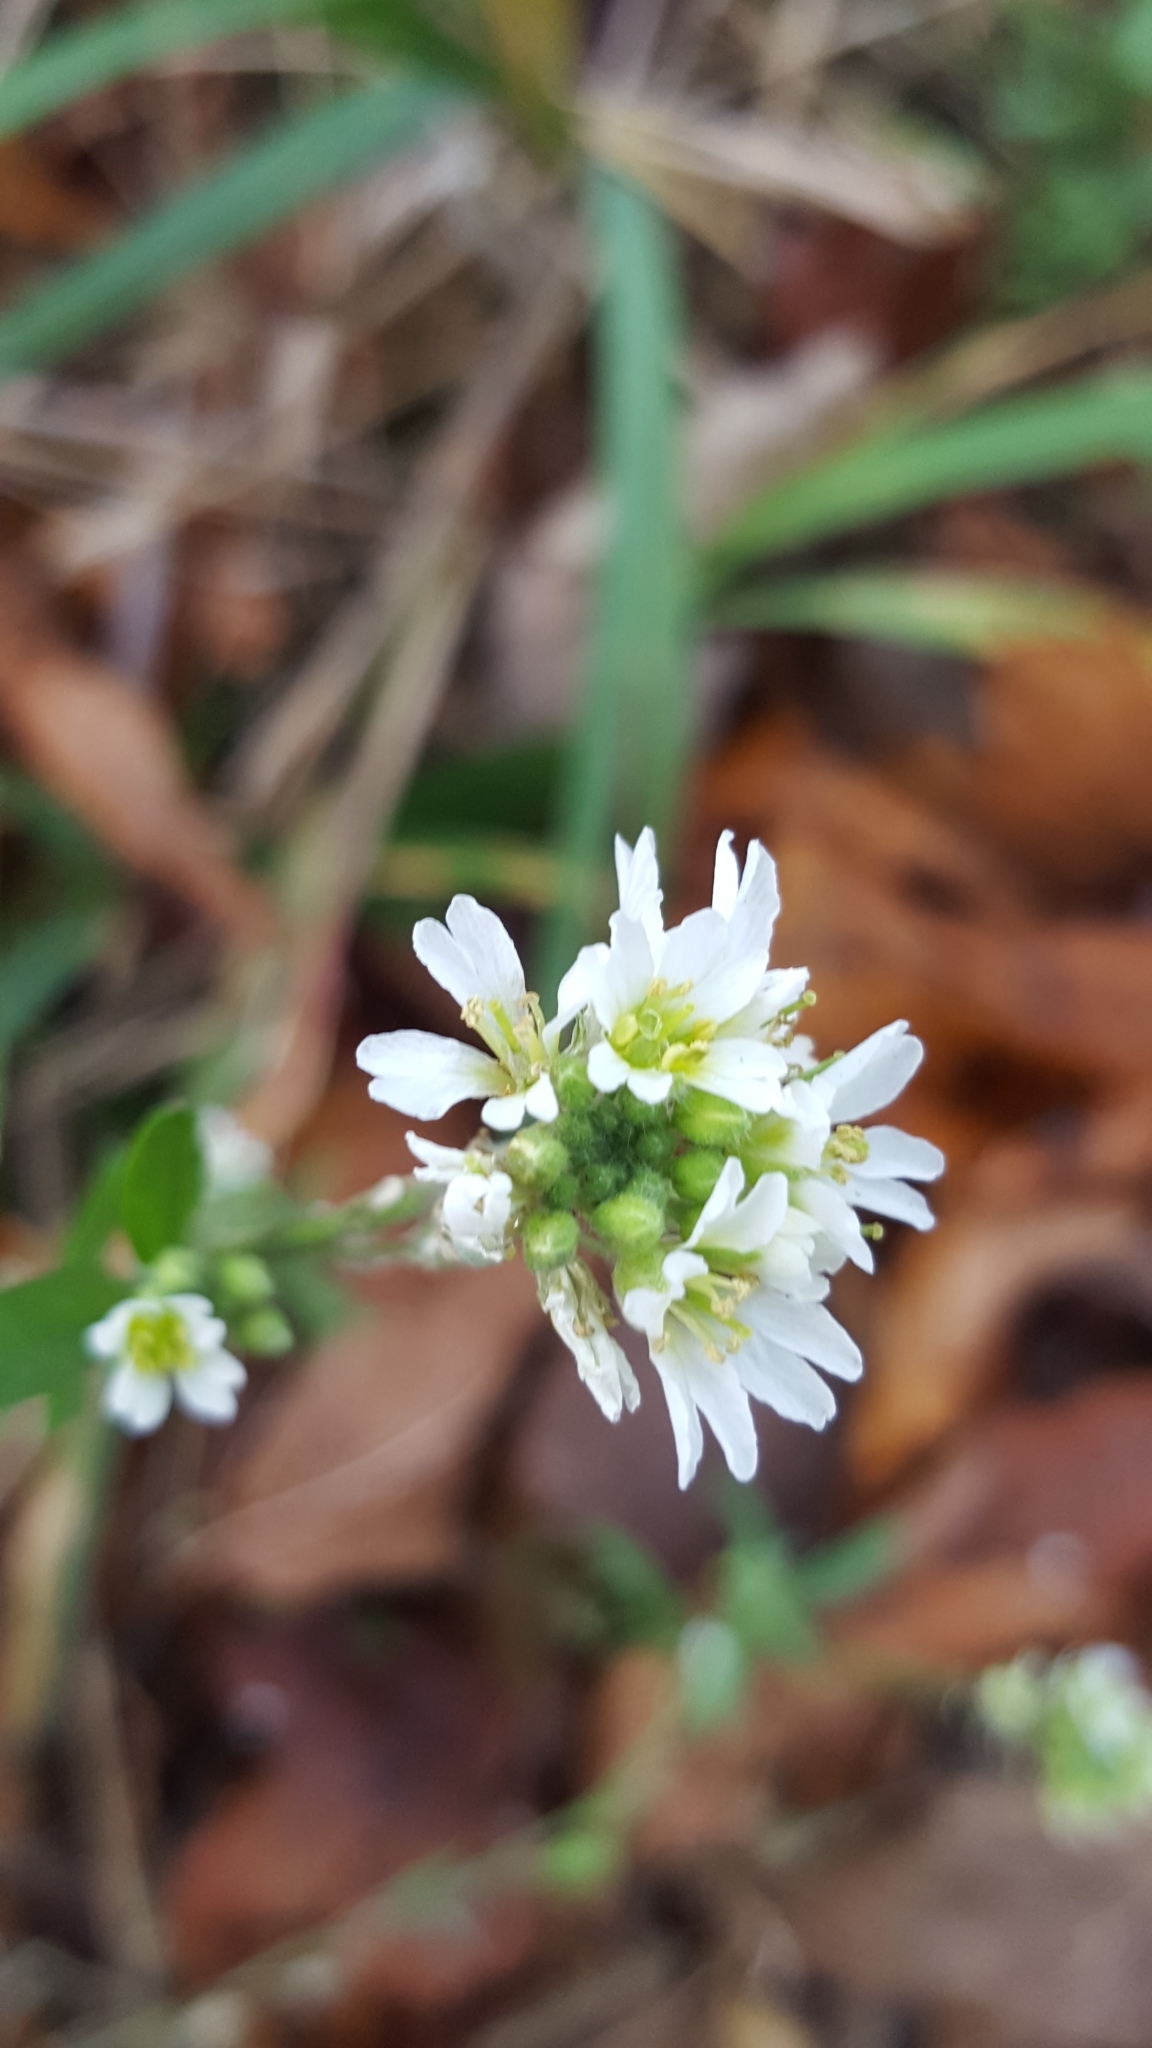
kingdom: Plantae
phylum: Tracheophyta
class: Magnoliopsida
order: Brassicales
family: Brassicaceae
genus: Berteroa
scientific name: Berteroa incana
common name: Hoary alison
